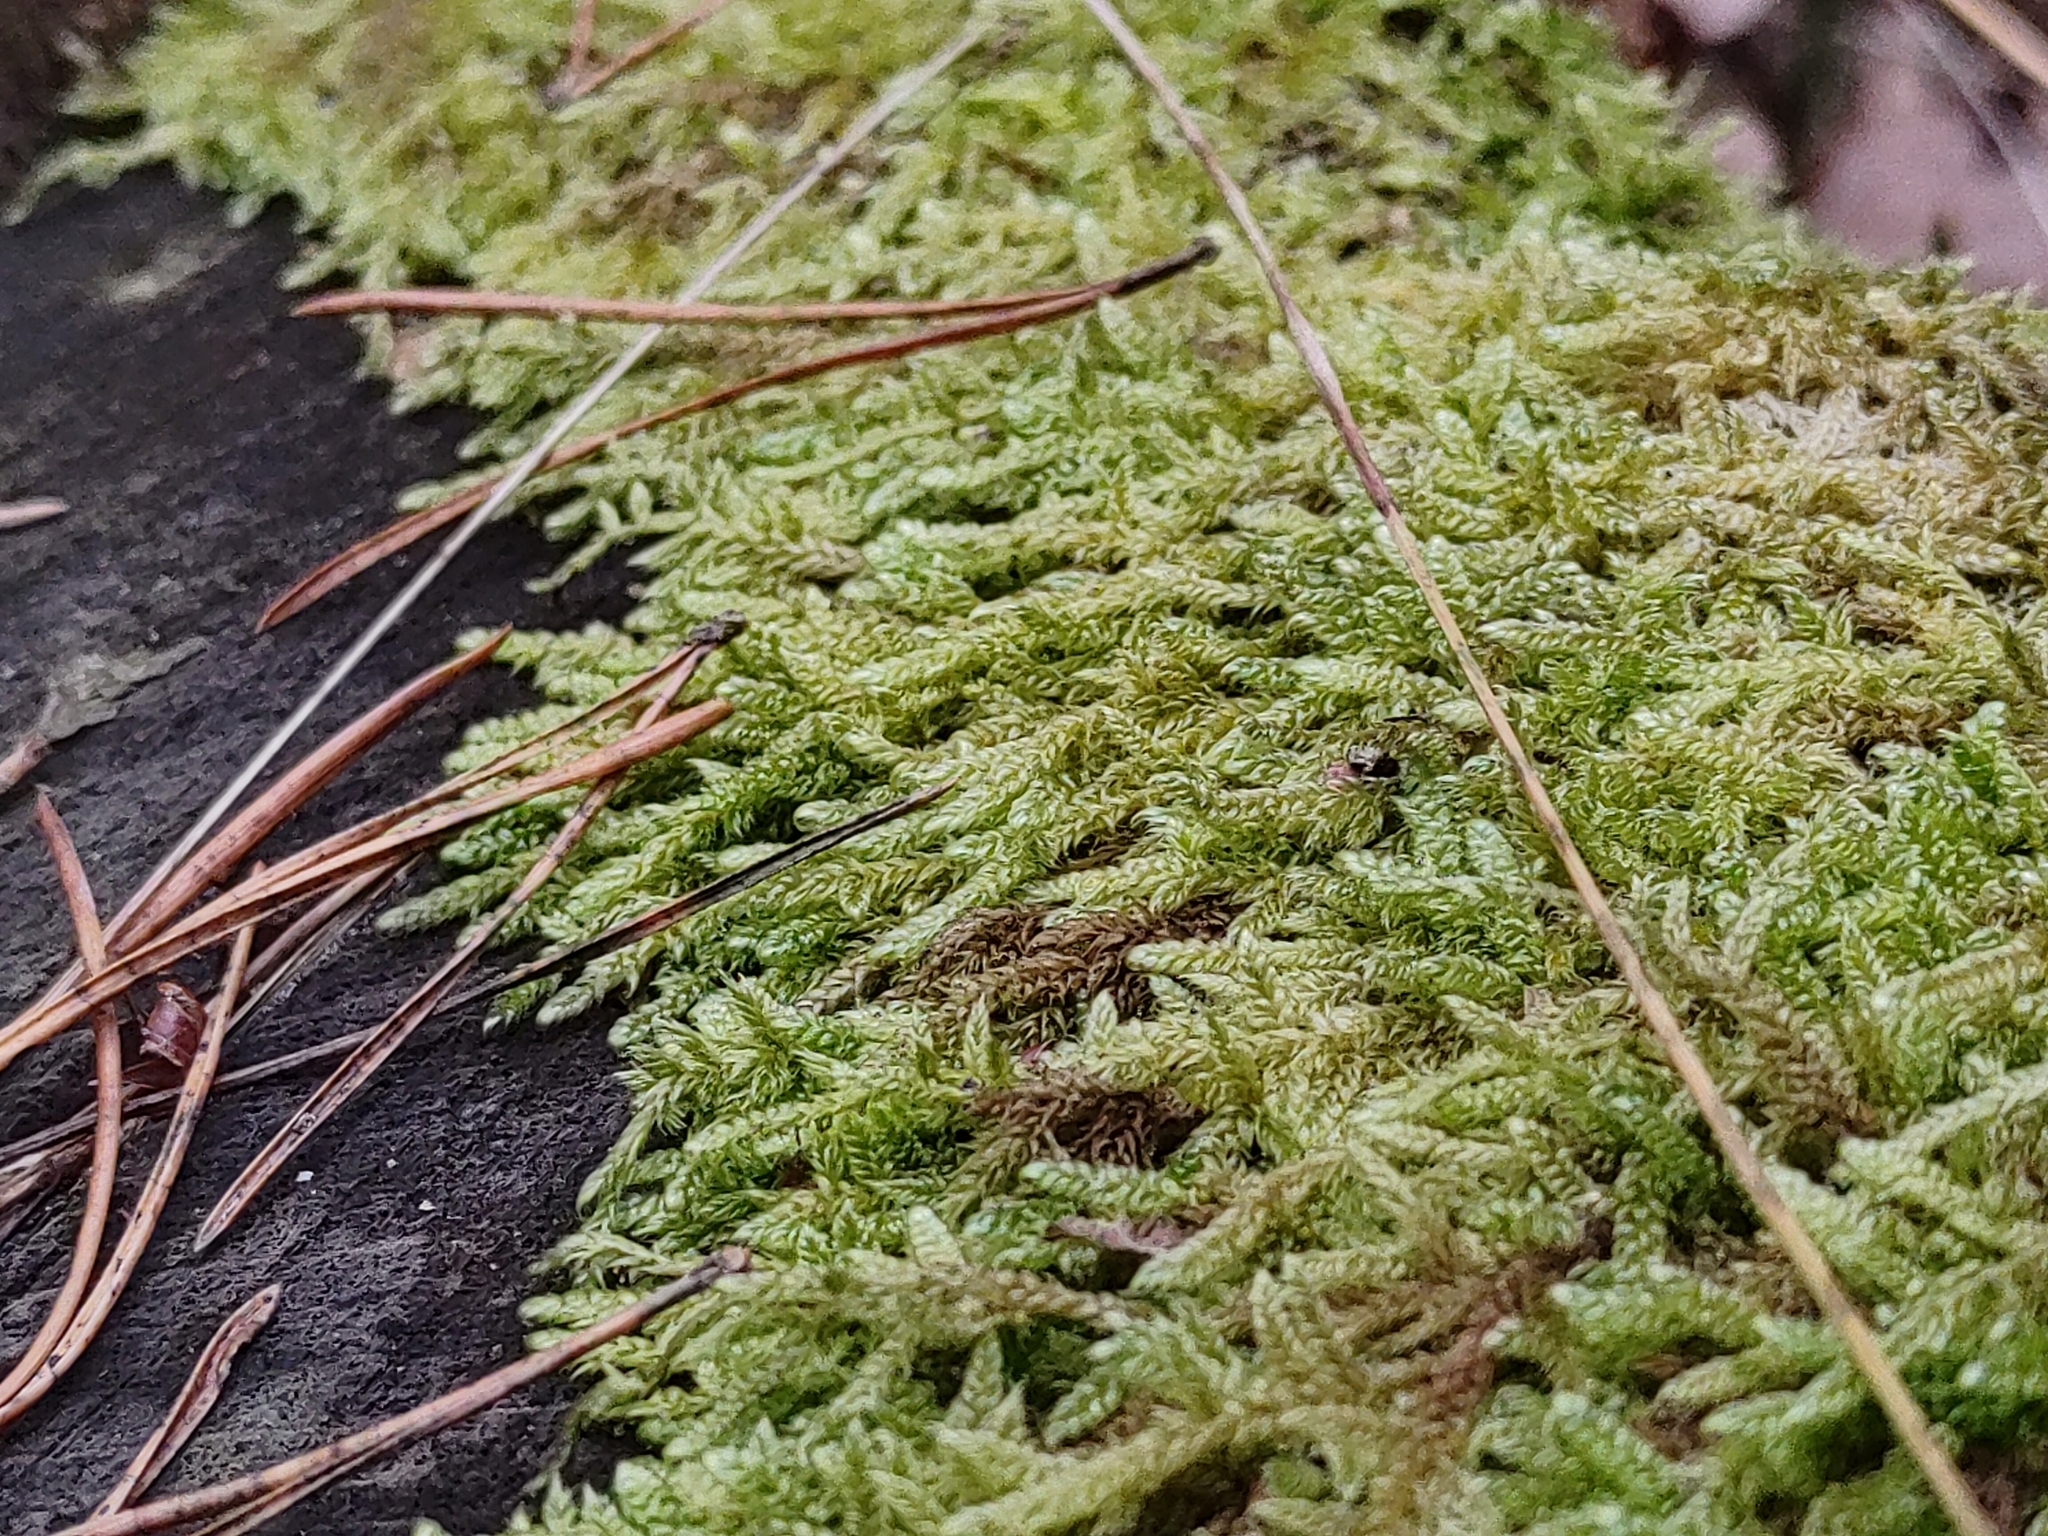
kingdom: Plantae
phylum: Bryophyta
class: Bryopsida
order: Hypnales
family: Hypnaceae
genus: Hypnum
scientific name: Hypnum cupressiforme
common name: Cypress-leaved plait-moss
